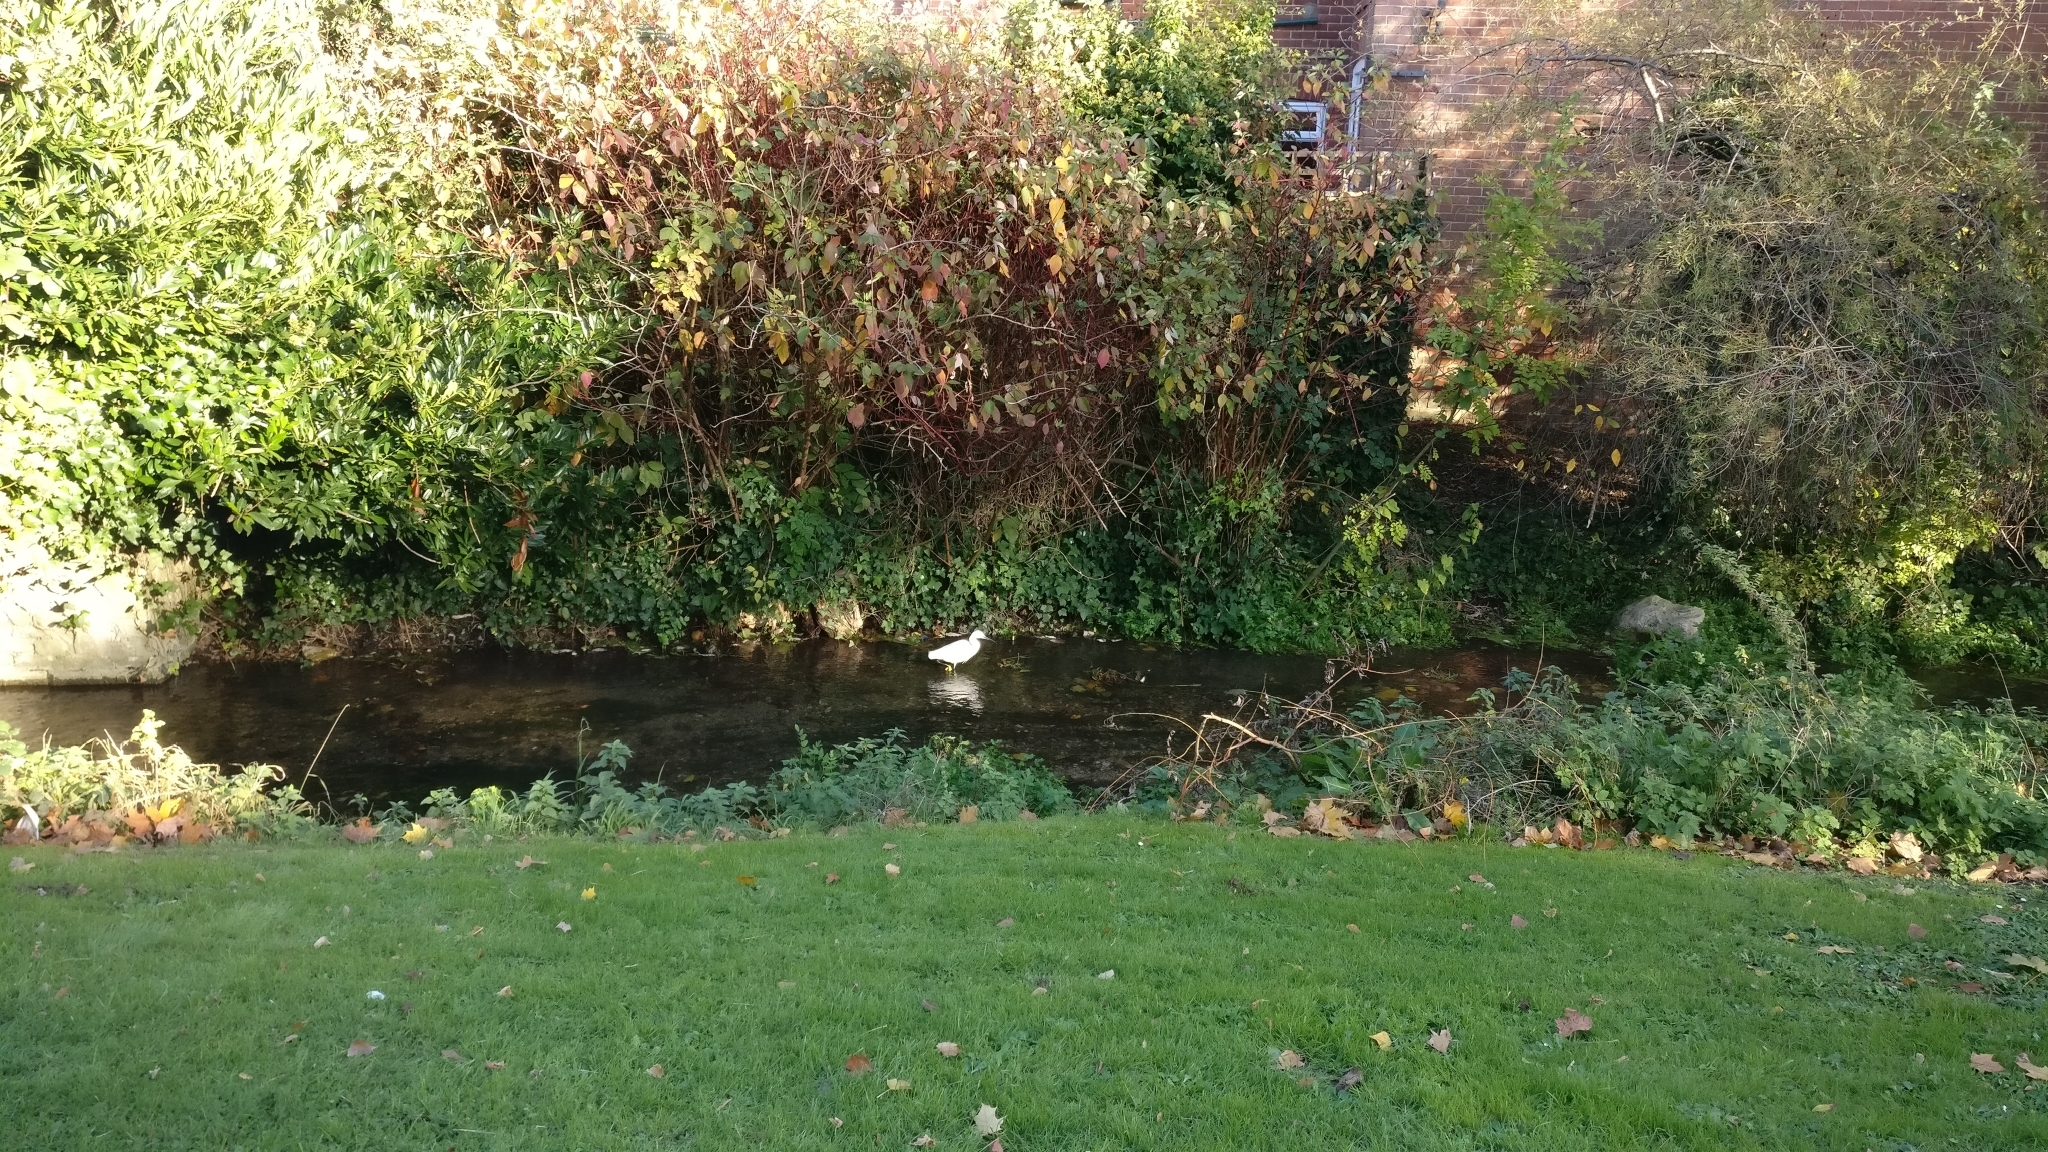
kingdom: Animalia
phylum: Chordata
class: Aves
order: Pelecaniformes
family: Ardeidae
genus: Egretta
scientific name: Egretta garzetta
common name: Little egret
